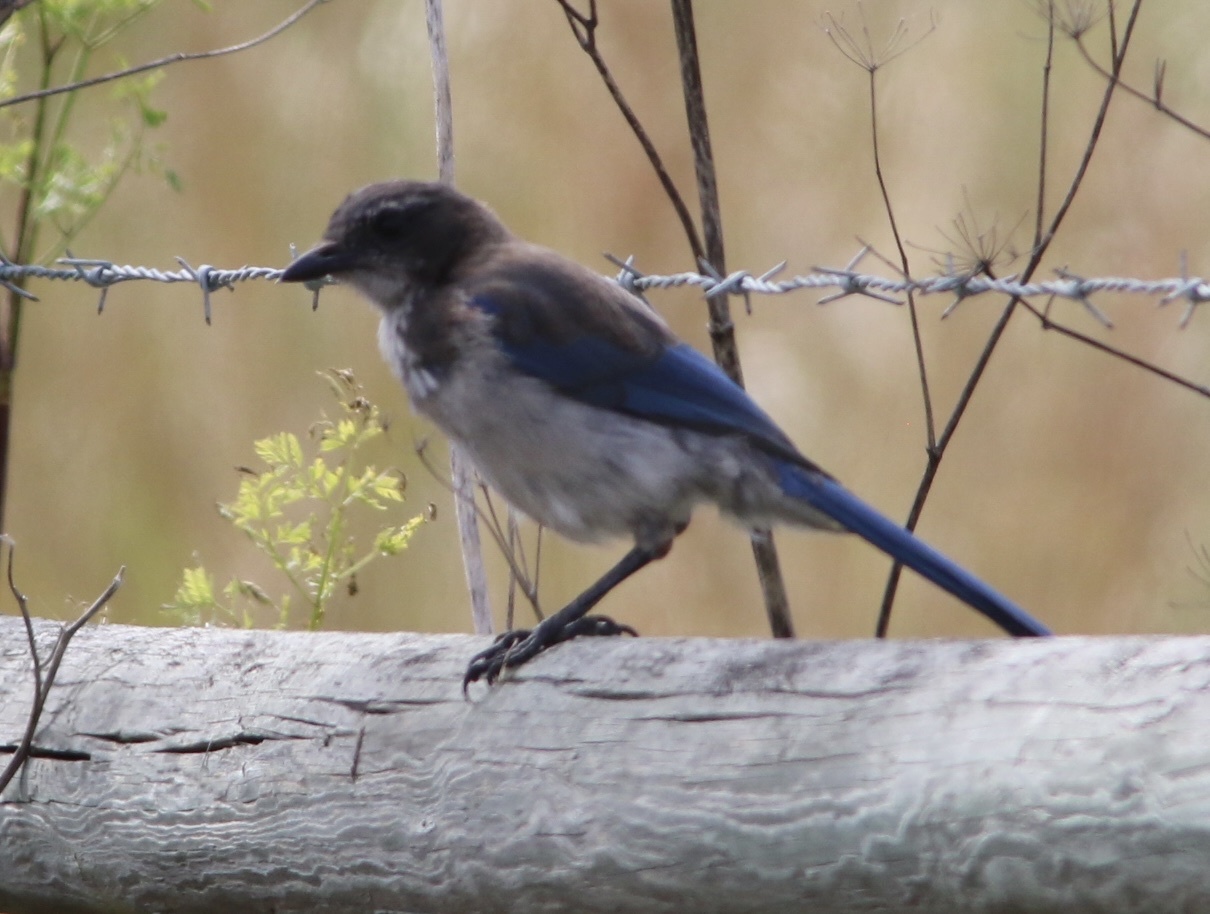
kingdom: Animalia
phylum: Chordata
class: Aves
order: Passeriformes
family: Corvidae
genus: Aphelocoma
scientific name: Aphelocoma californica
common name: California scrub-jay
